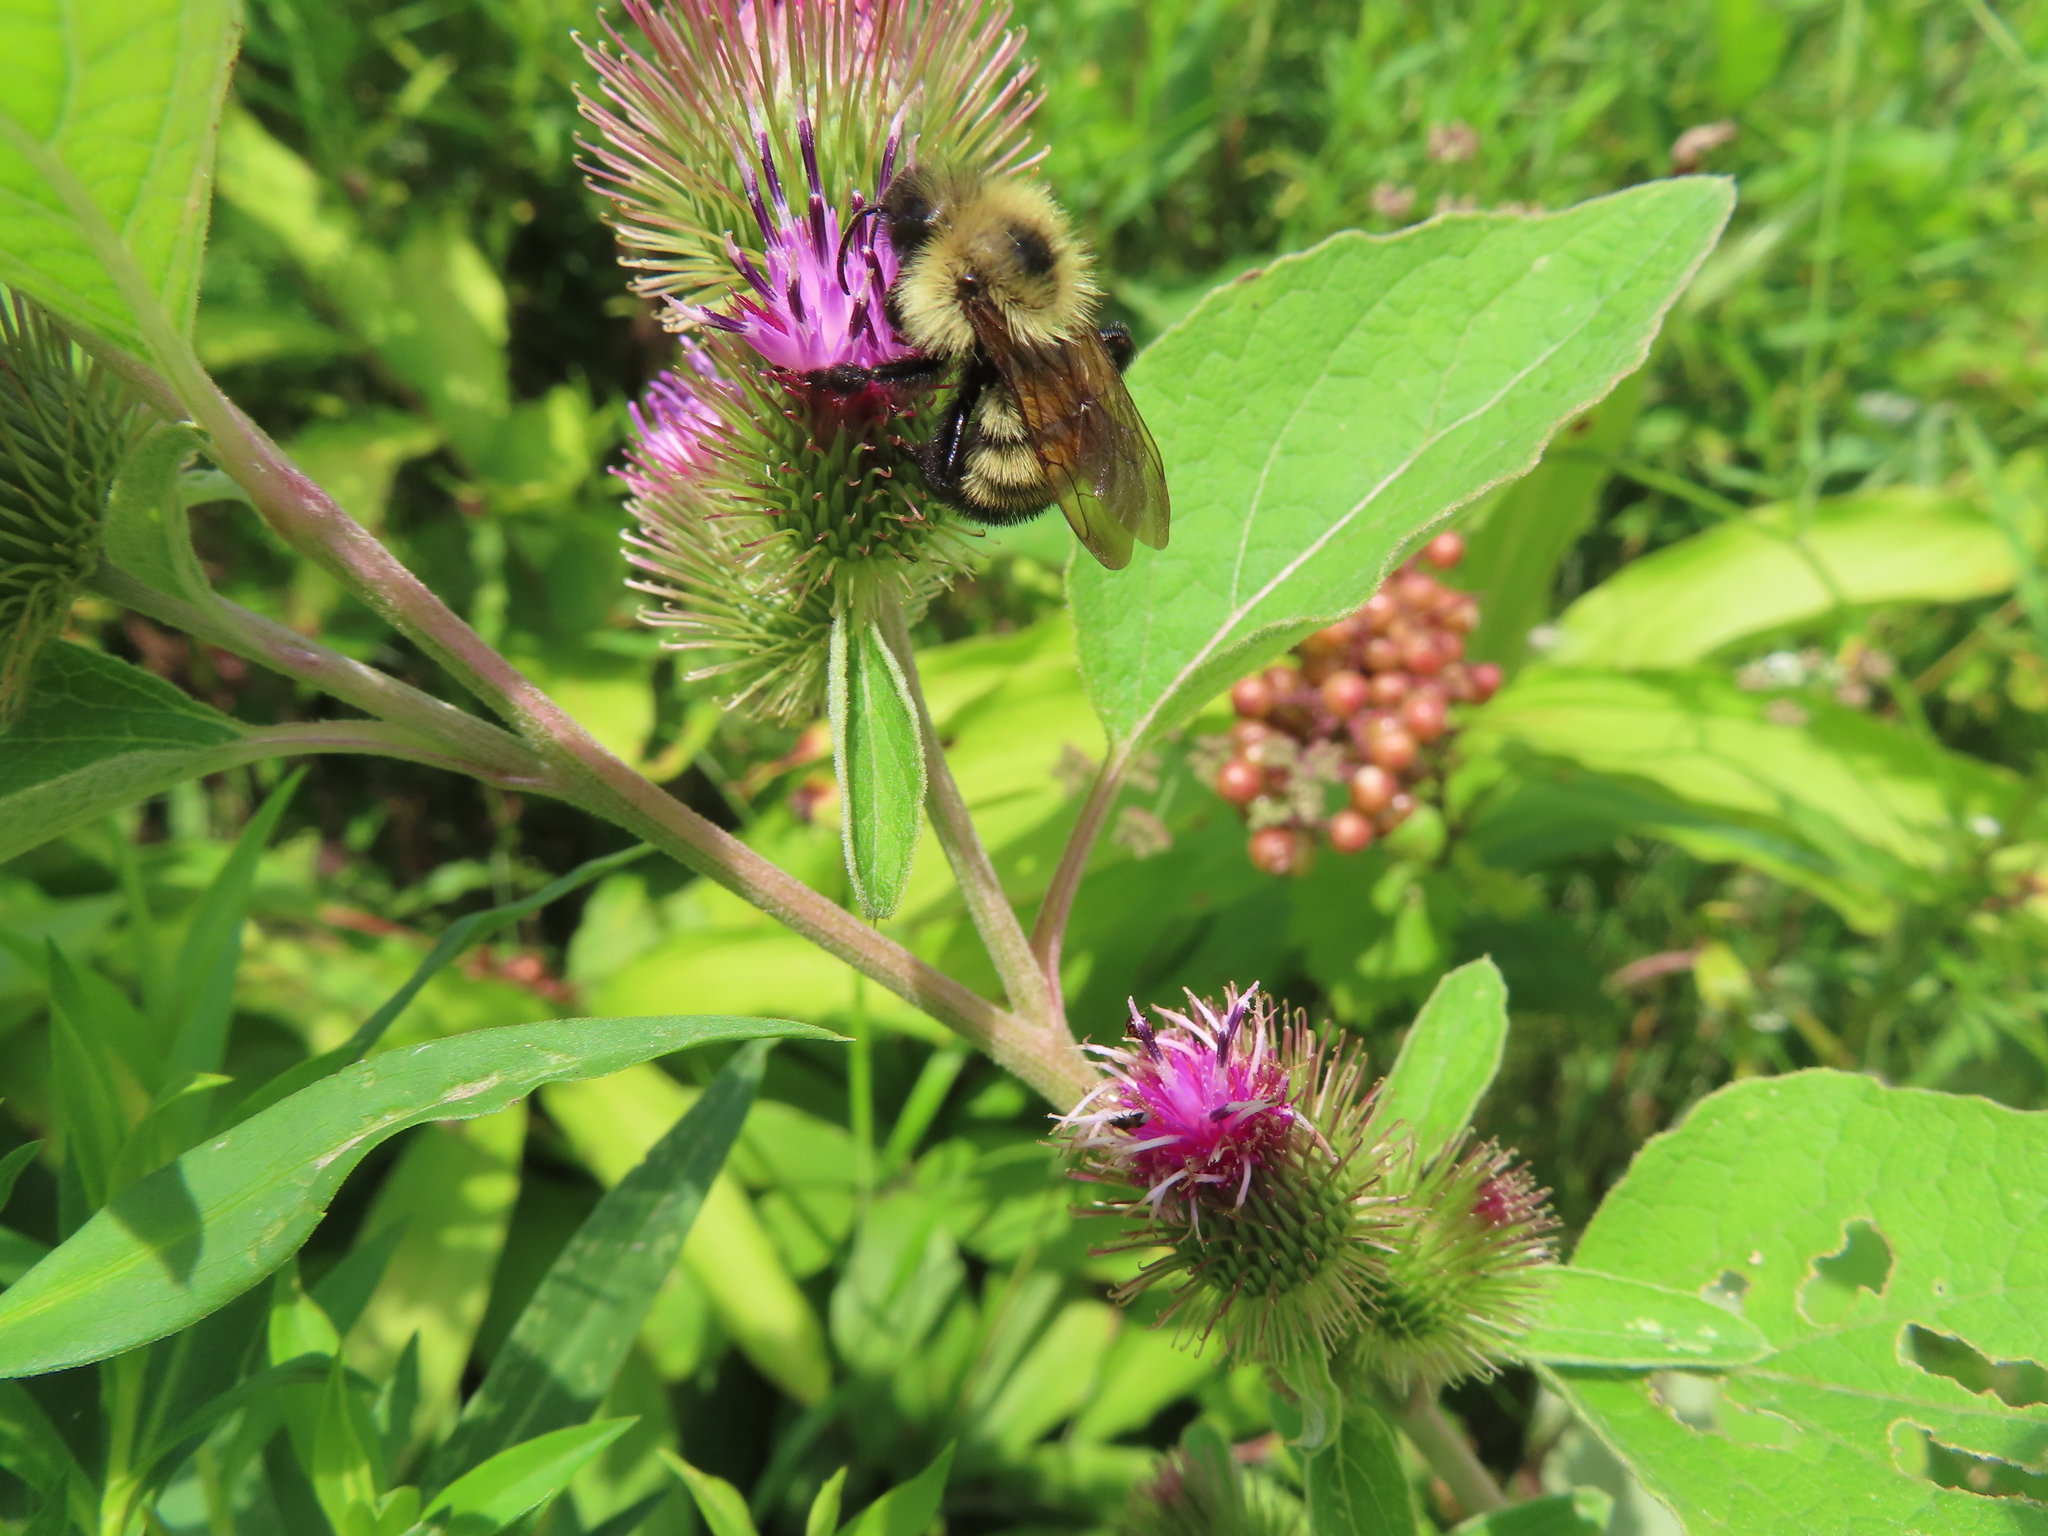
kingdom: Animalia
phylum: Arthropoda
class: Insecta
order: Hymenoptera
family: Apidae
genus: Bombus
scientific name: Bombus citrinus
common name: Lemon cuckoo bumble bee
